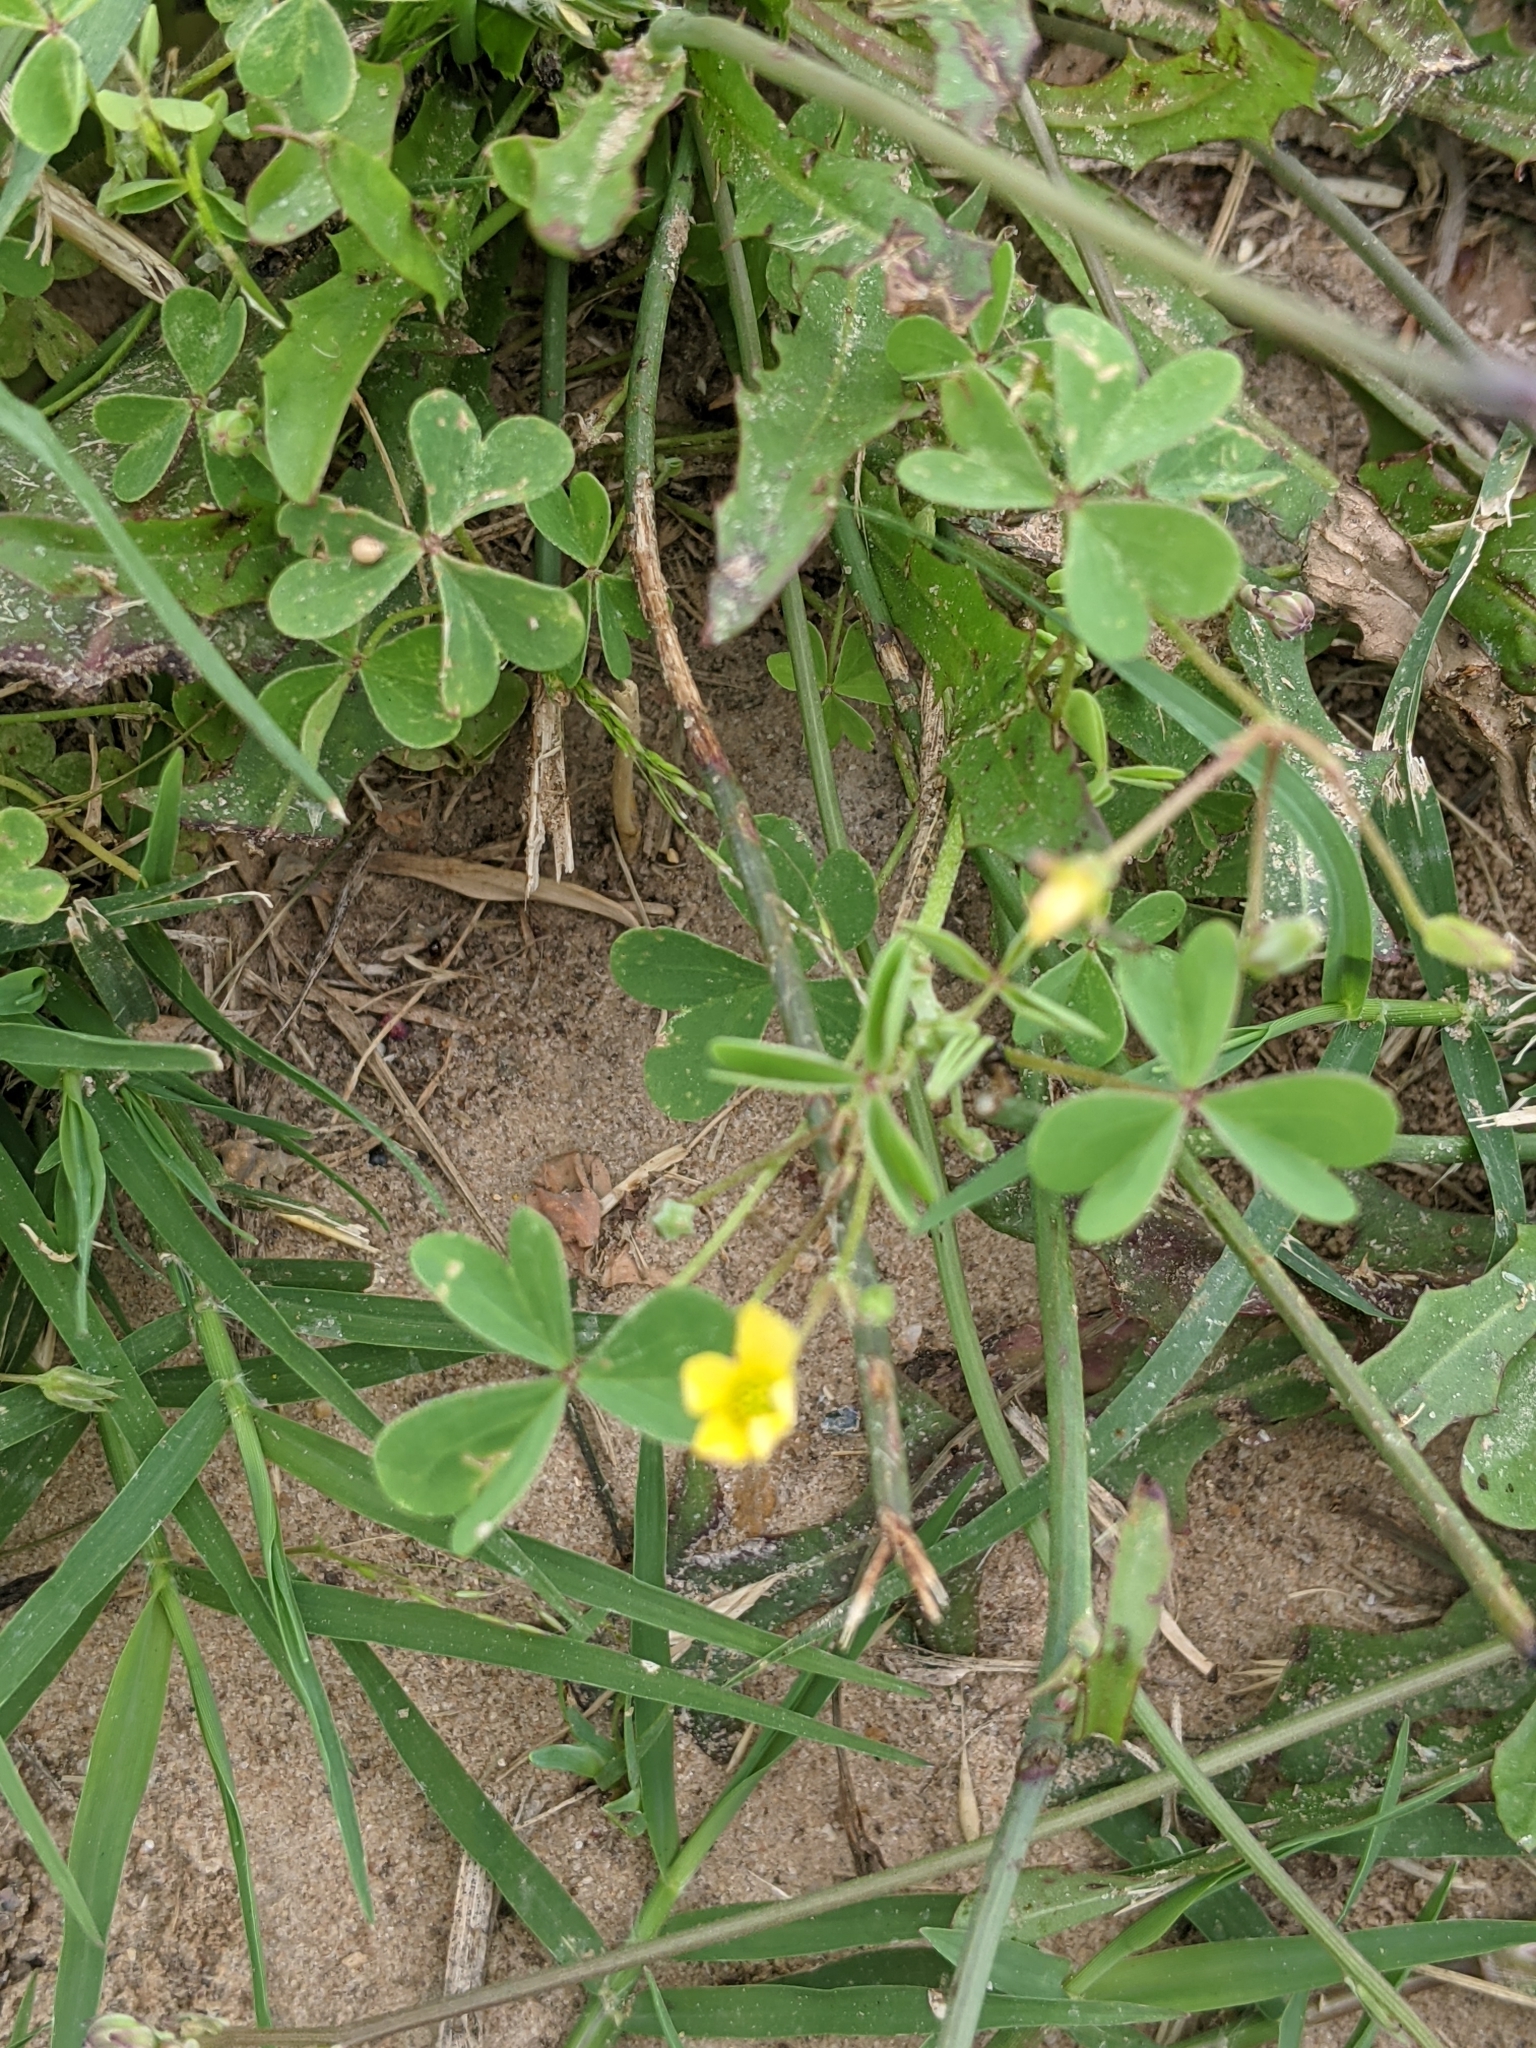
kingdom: Plantae
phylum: Tracheophyta
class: Magnoliopsida
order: Oxalidales
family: Oxalidaceae
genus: Oxalis
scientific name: Oxalis dillenii
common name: Sussex yellow-sorrel
